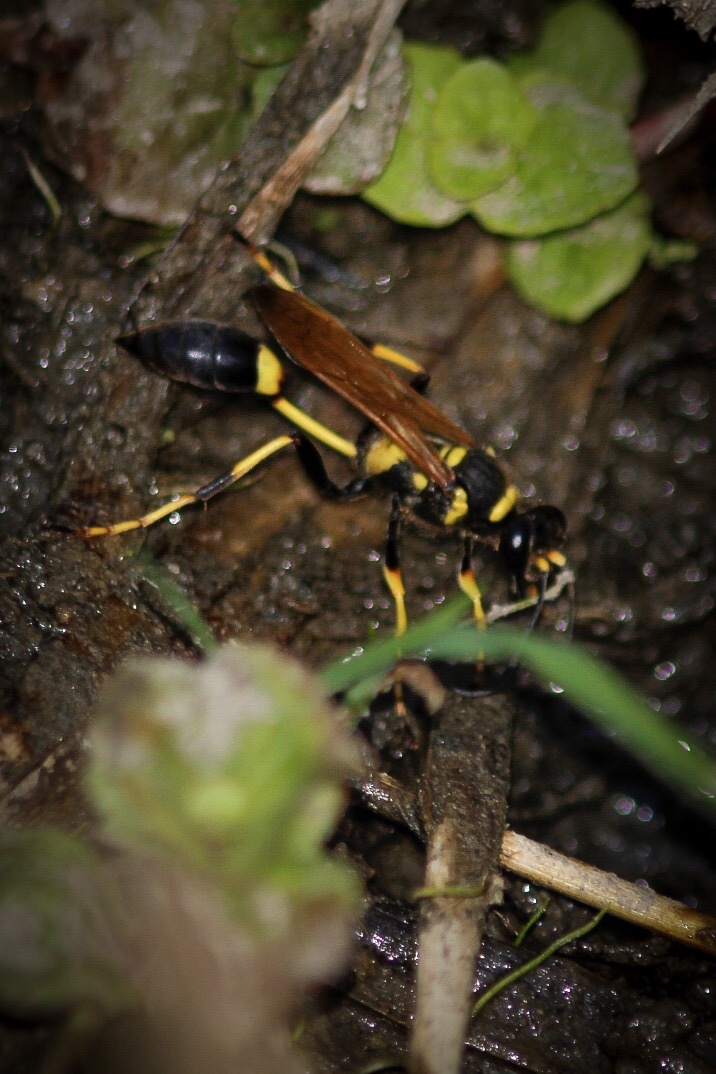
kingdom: Animalia
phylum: Arthropoda
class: Insecta
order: Hymenoptera
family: Sphecidae
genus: Sceliphron
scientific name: Sceliphron caementarium
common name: Mud dauber
